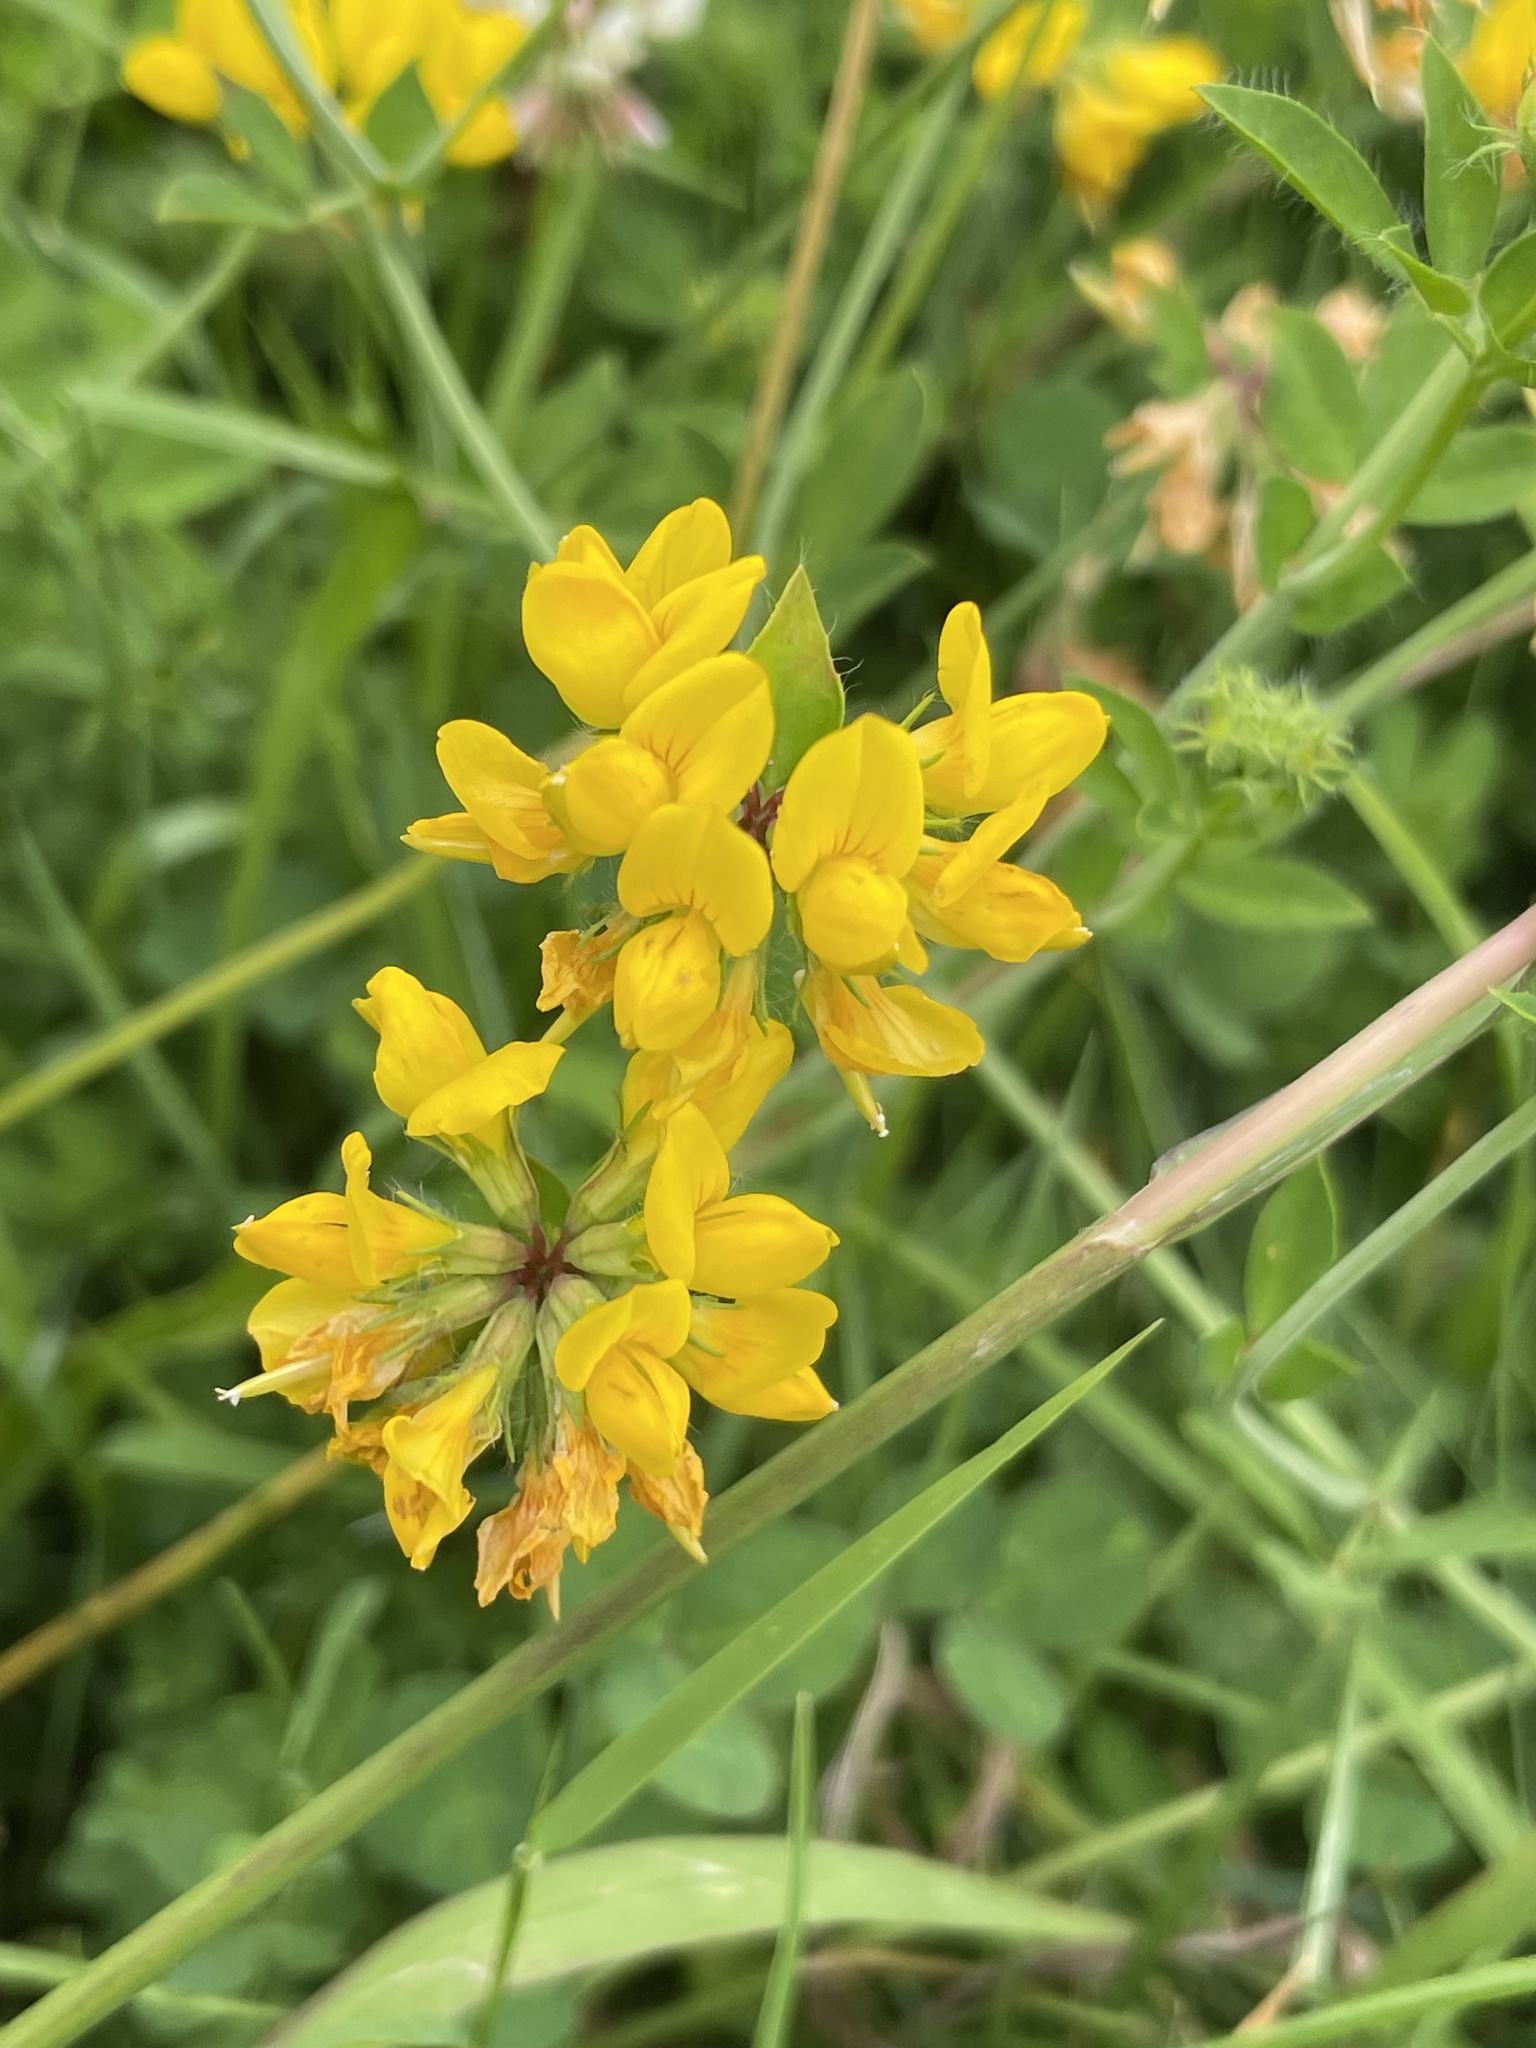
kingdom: Plantae
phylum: Tracheophyta
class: Magnoliopsida
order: Fabales
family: Fabaceae
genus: Lotus
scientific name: Lotus pedunculatus
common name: Greater birdsfoot-trefoil
